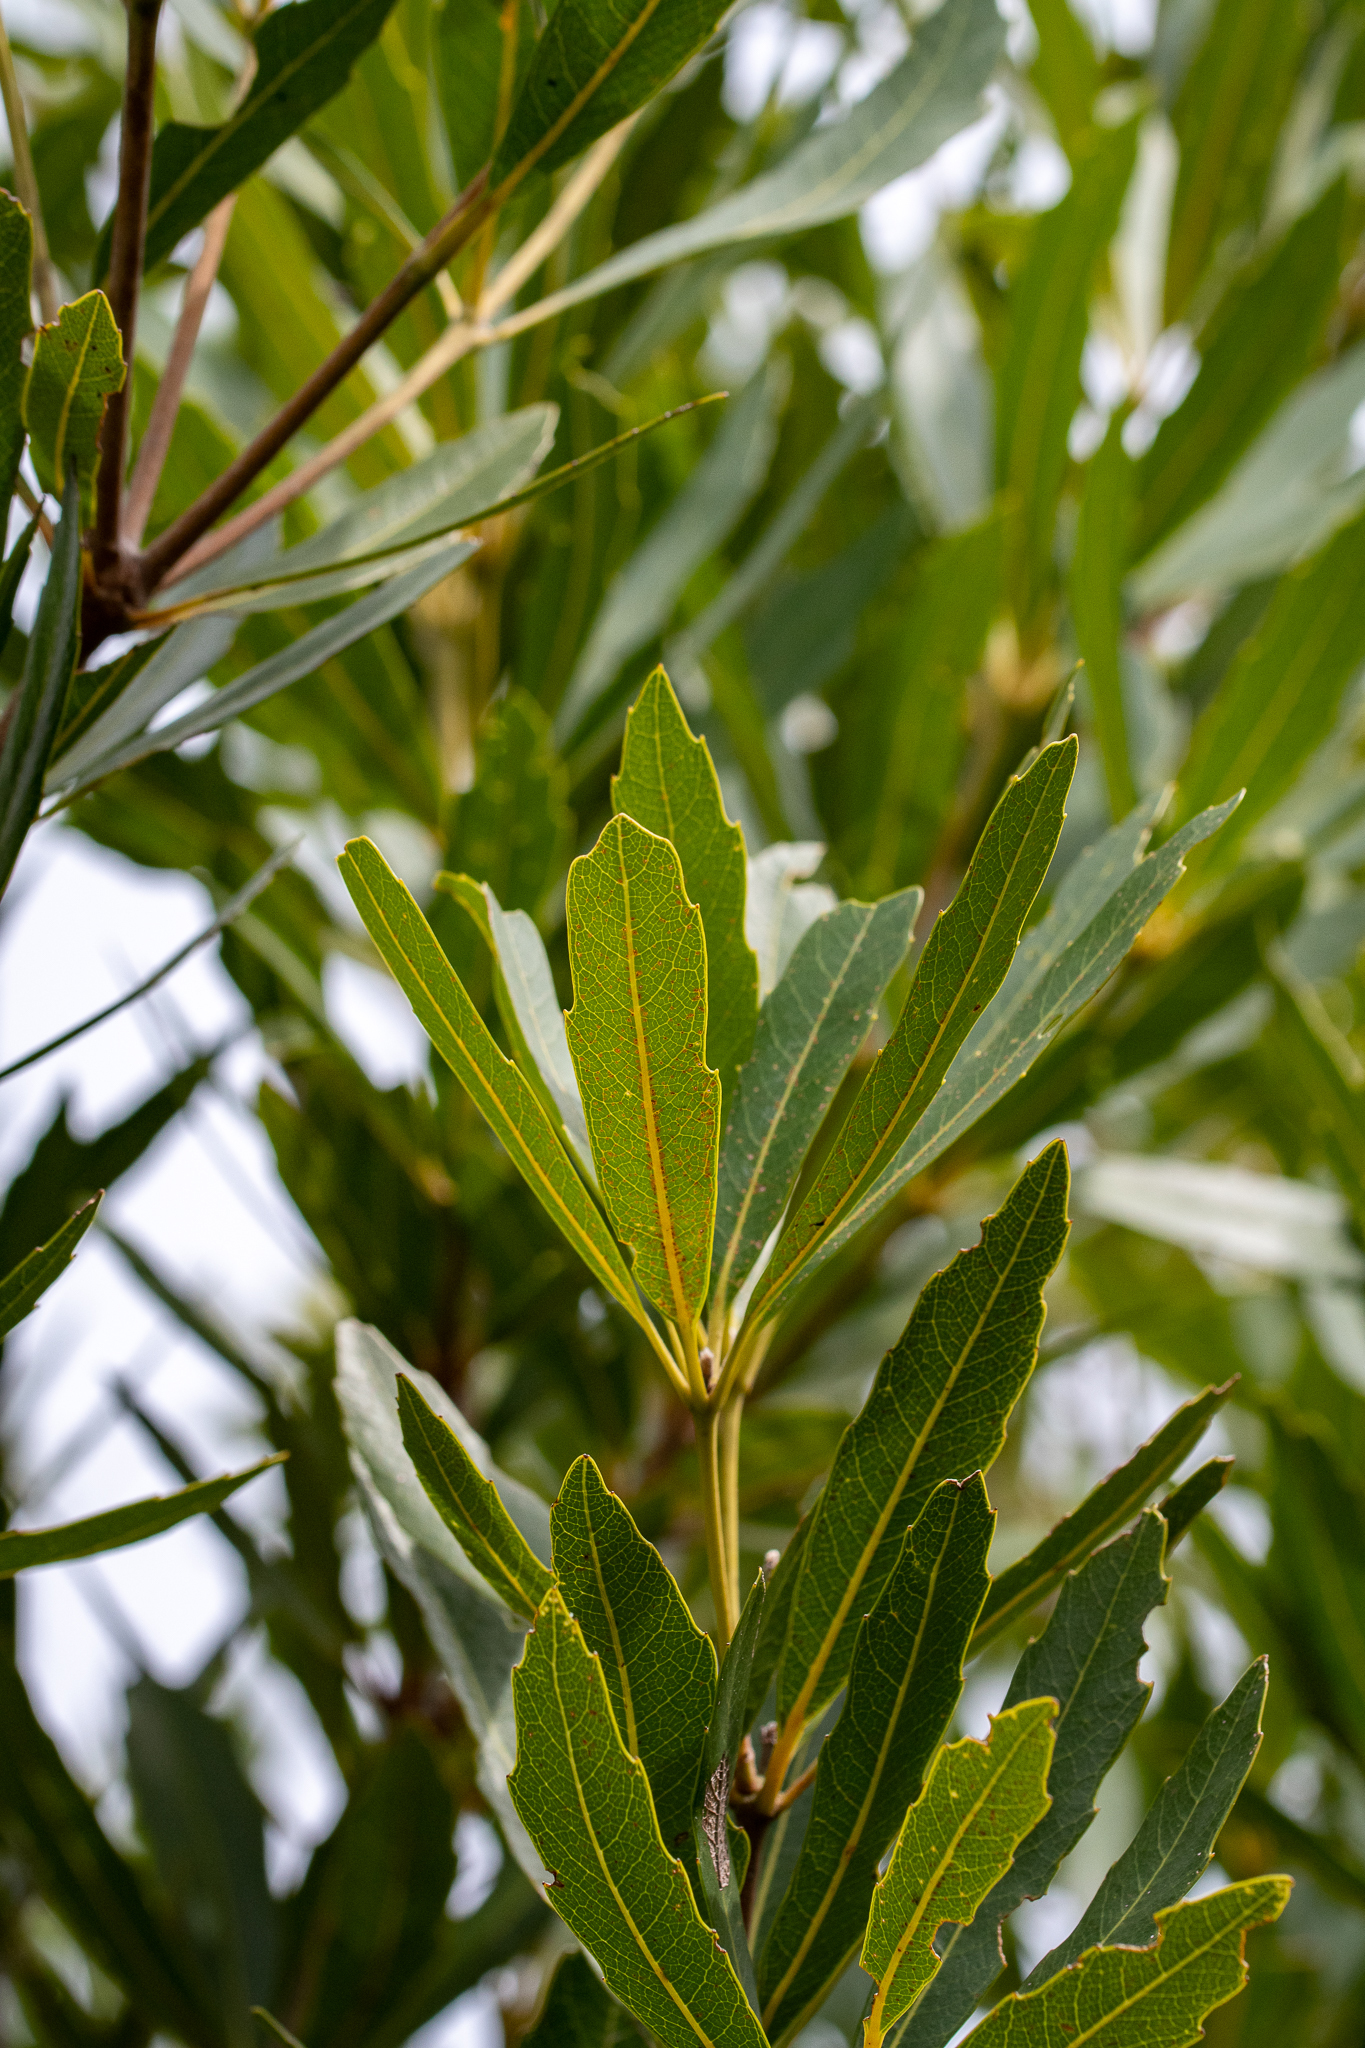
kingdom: Plantae
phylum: Tracheophyta
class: Magnoliopsida
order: Proteales
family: Proteaceae
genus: Brabejum
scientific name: Brabejum stellatifolium
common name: Wild almond
